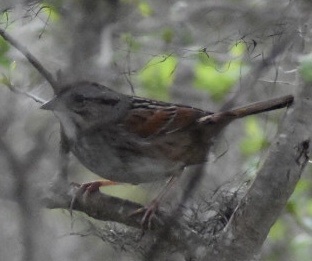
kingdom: Animalia
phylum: Chordata
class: Aves
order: Passeriformes
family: Passerellidae
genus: Melospiza
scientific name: Melospiza georgiana
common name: Swamp sparrow
